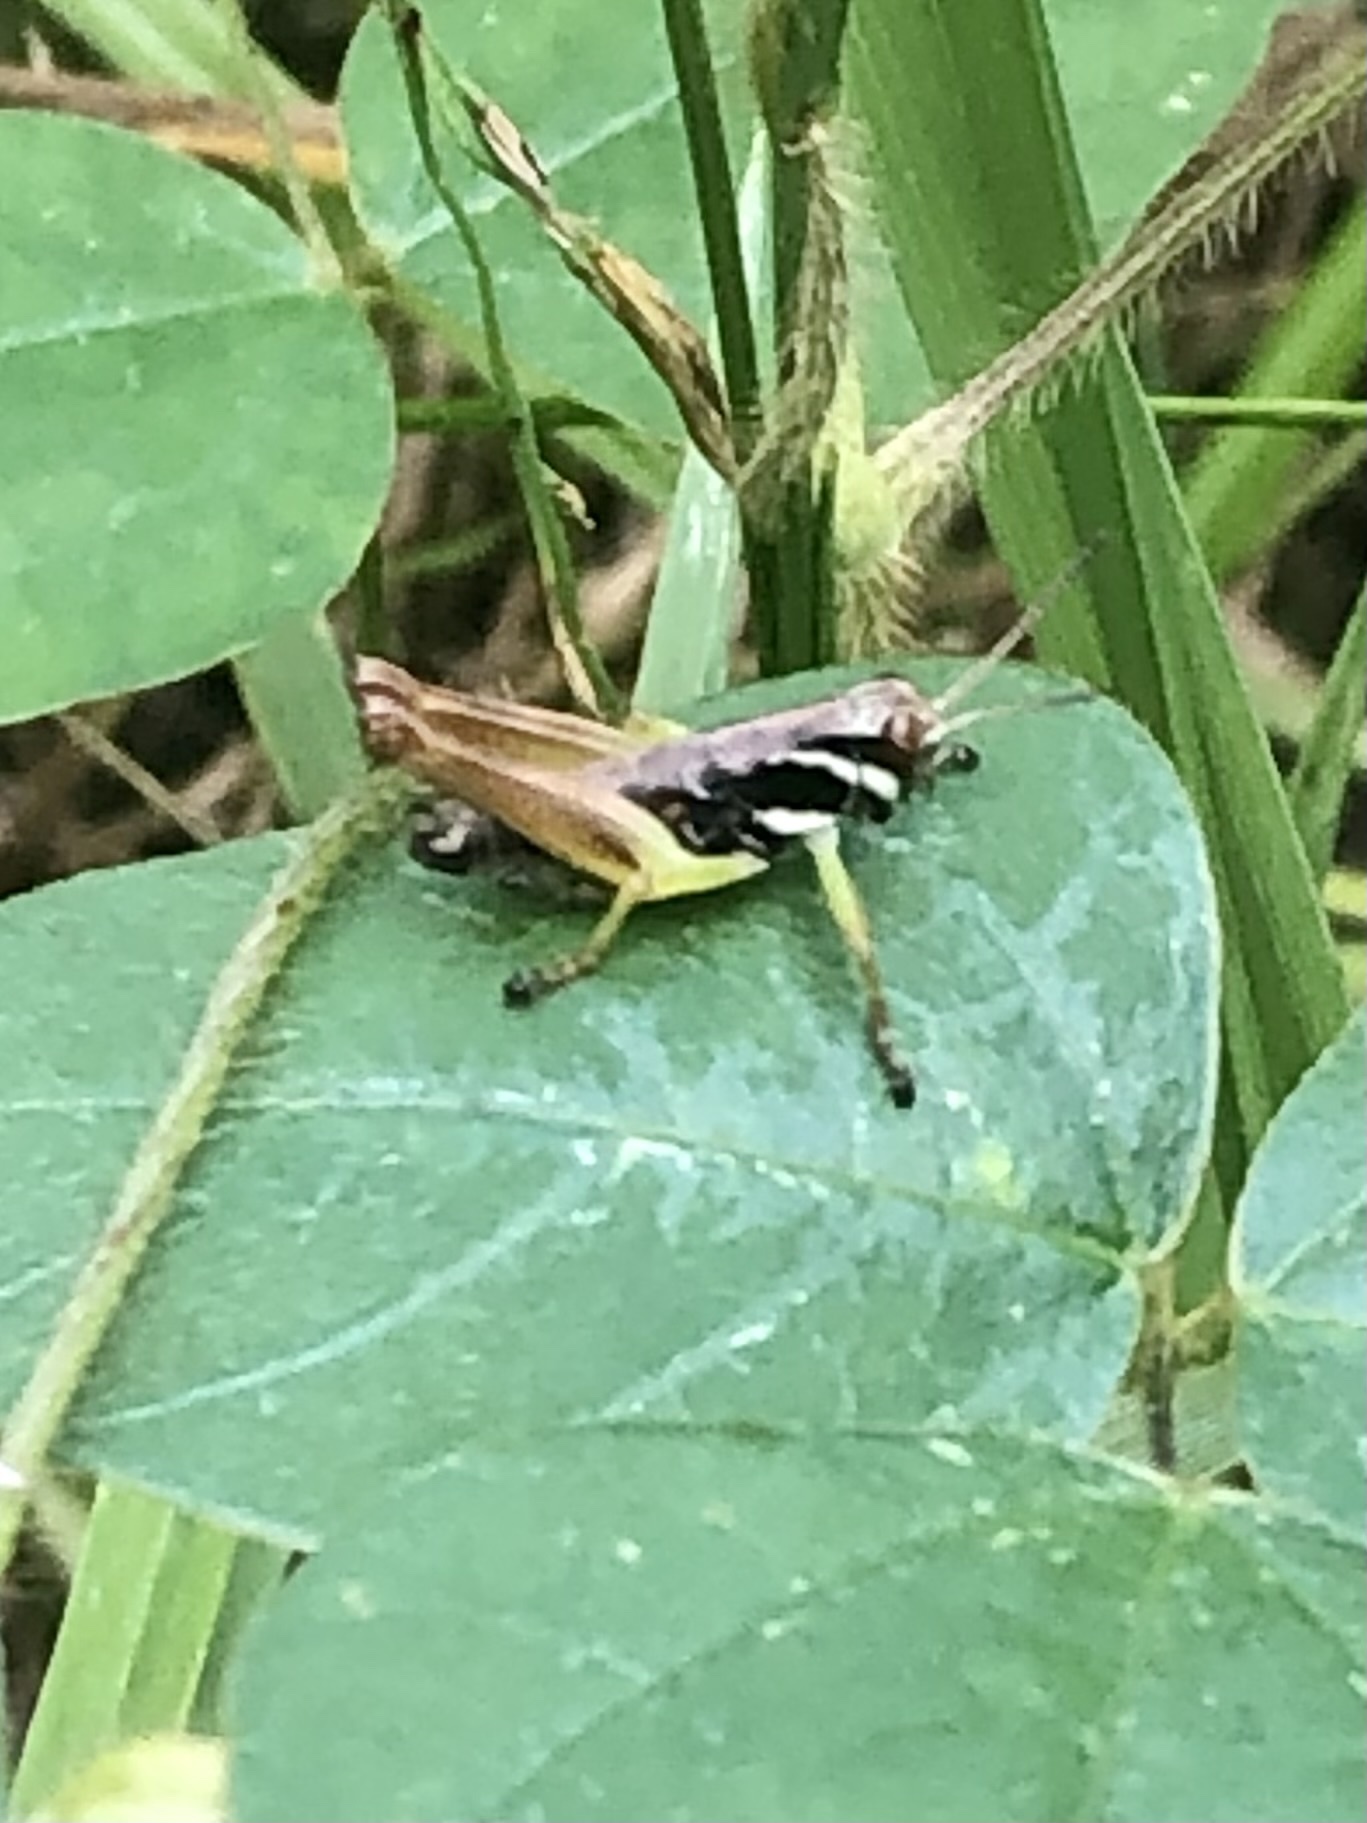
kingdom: Animalia
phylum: Arthropoda
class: Insecta
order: Orthoptera
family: Acrididae
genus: Melanoplus
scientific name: Melanoplus gracilis
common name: Graceful narrow-winged locust
